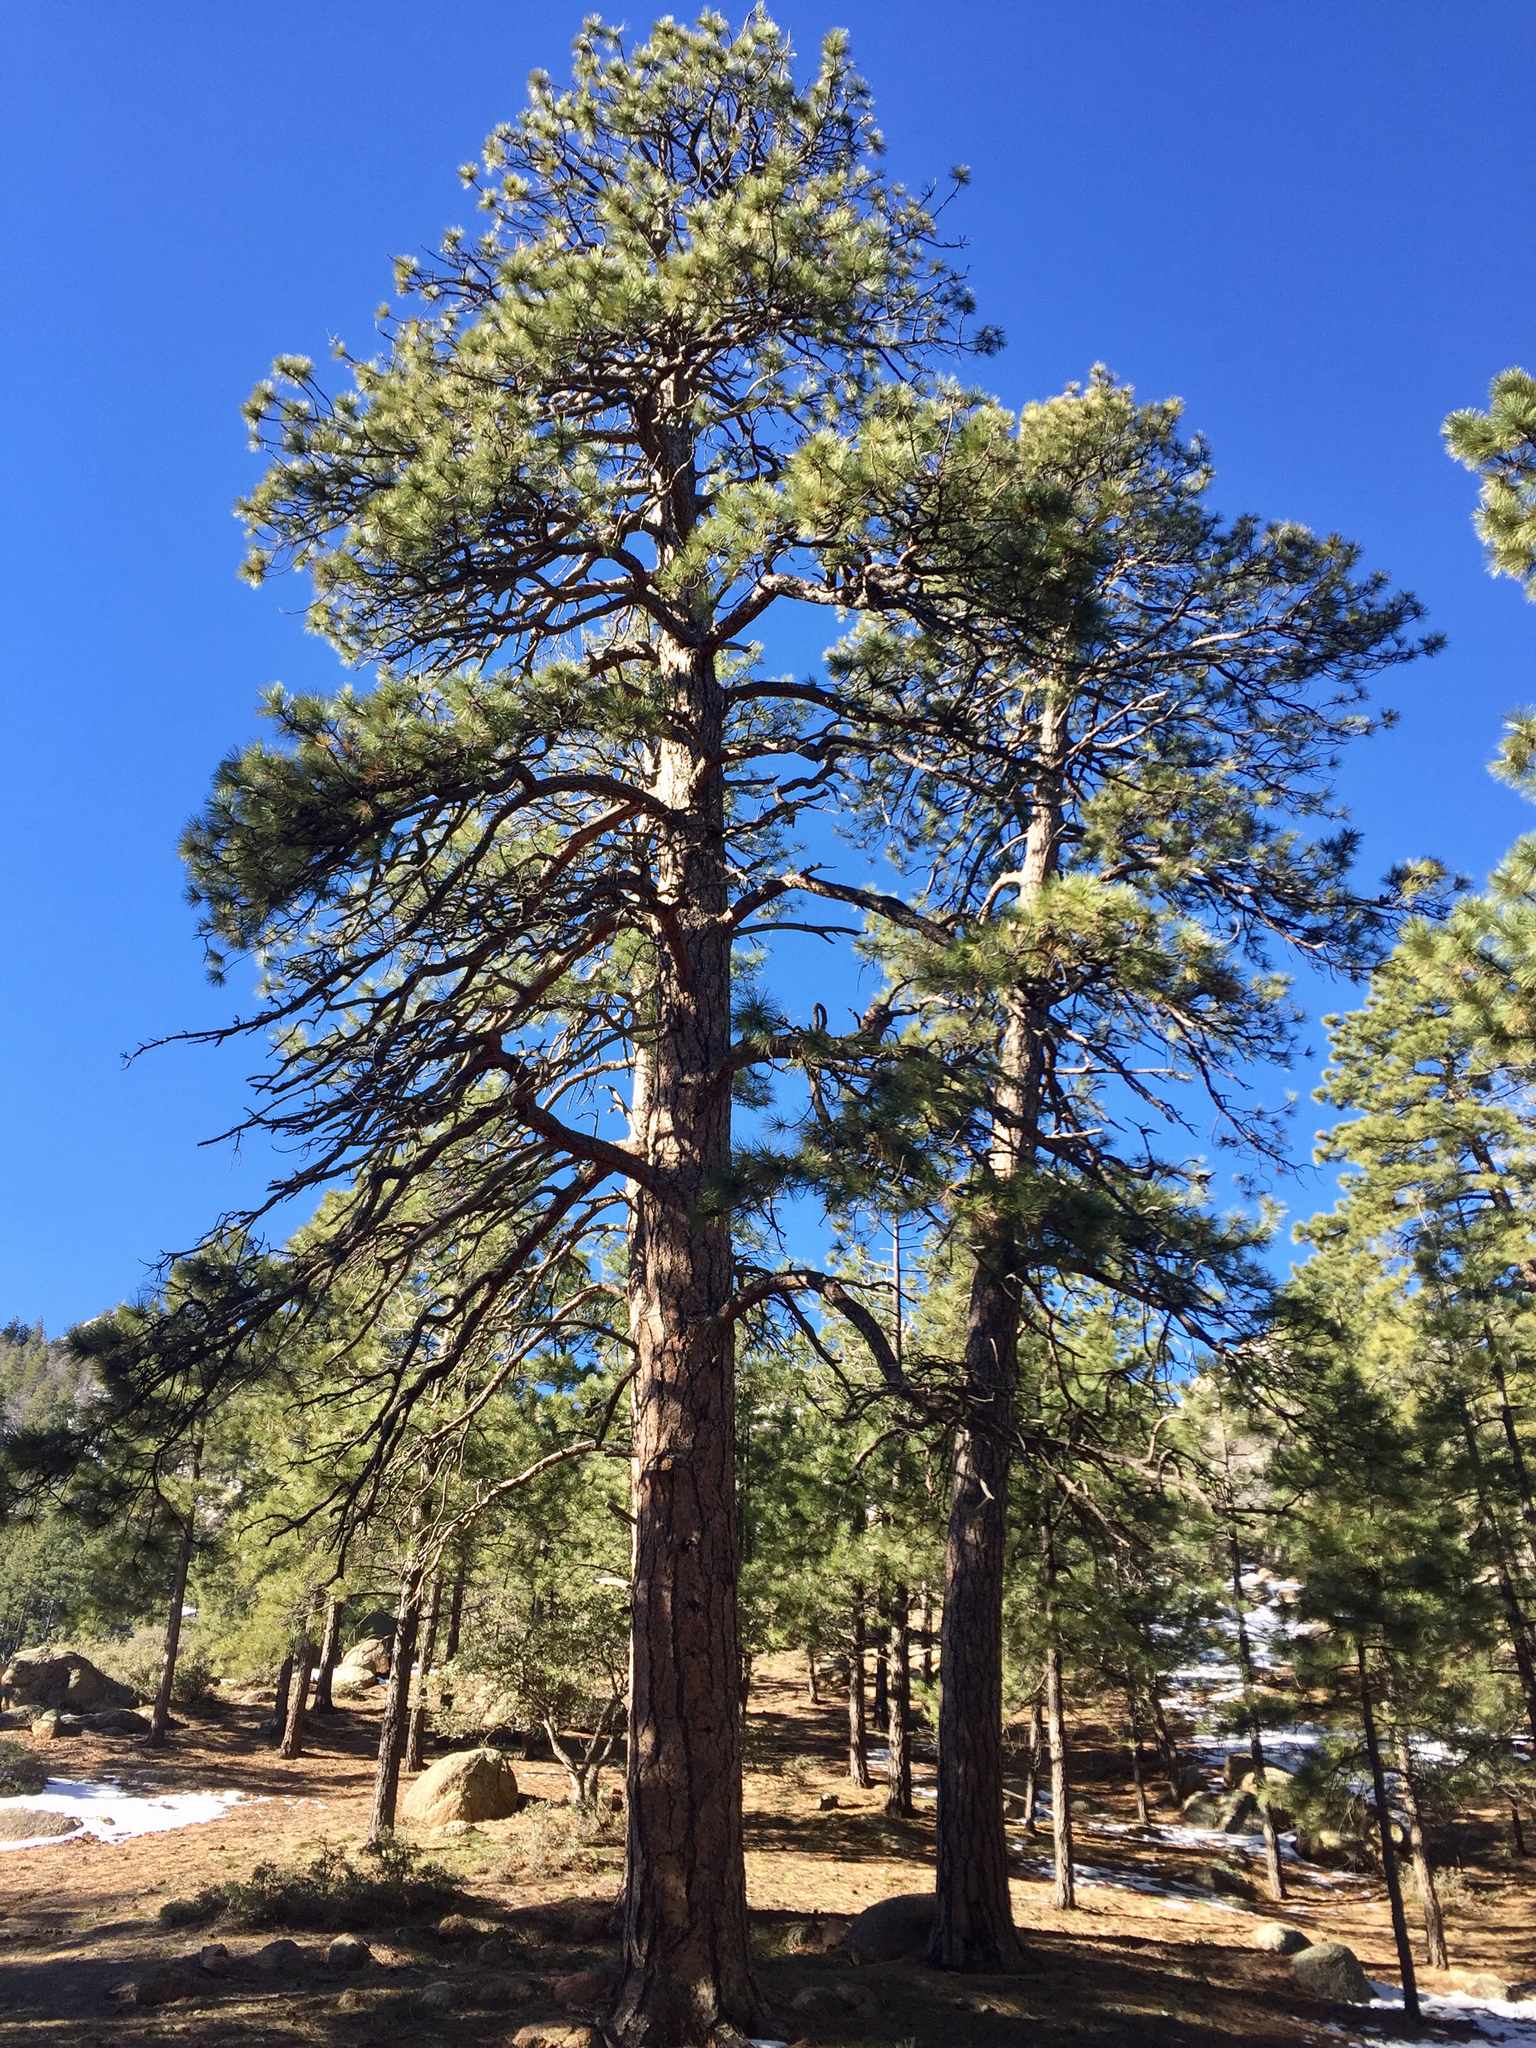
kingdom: Plantae
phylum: Tracheophyta
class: Pinopsida
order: Pinales
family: Pinaceae
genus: Pinus
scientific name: Pinus ponderosa
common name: Western yellow-pine
